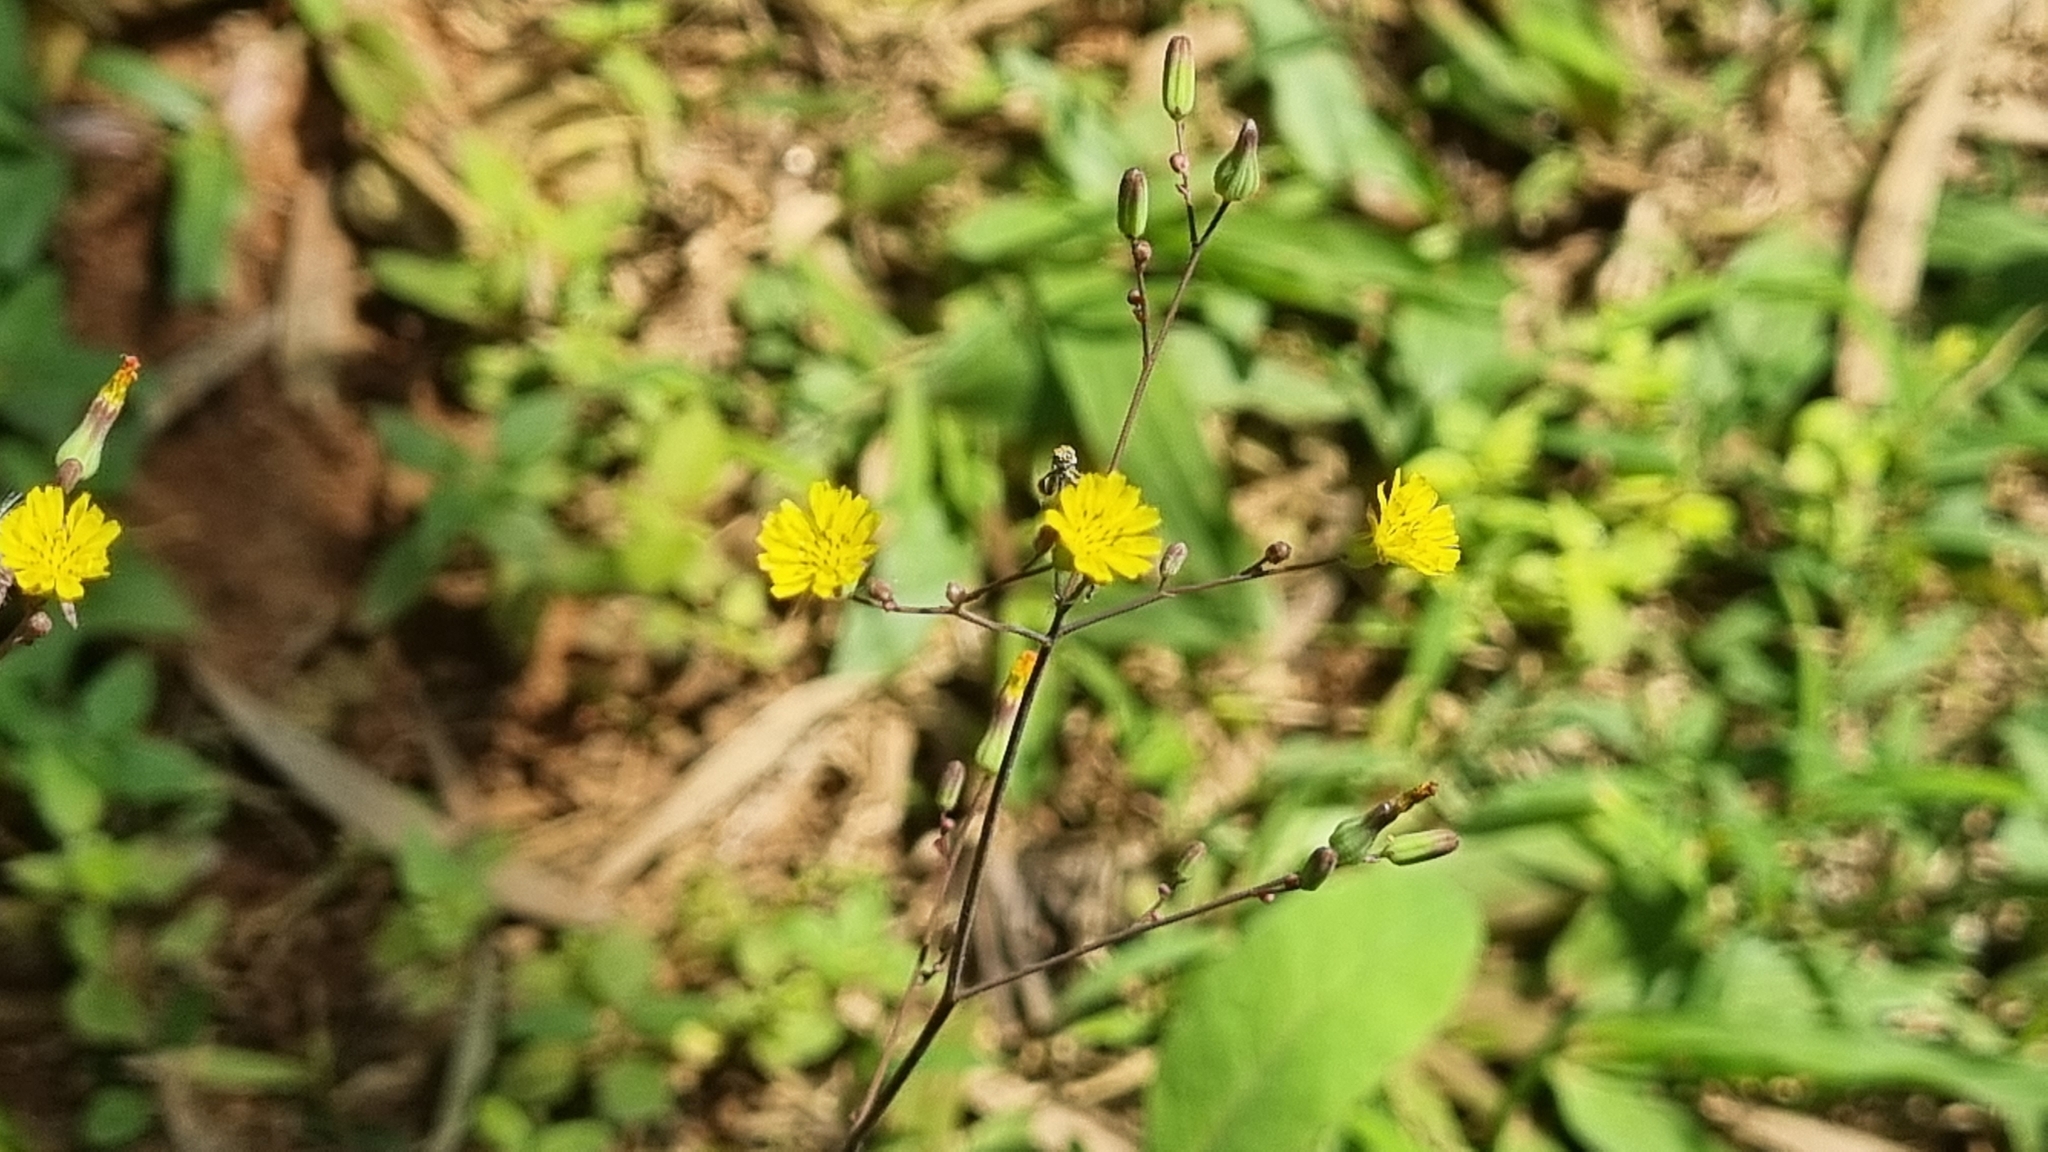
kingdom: Plantae
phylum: Tracheophyta
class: Magnoliopsida
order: Asterales
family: Asteraceae
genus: Youngia
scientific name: Youngia japonica
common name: Oriental false hawksbeard
